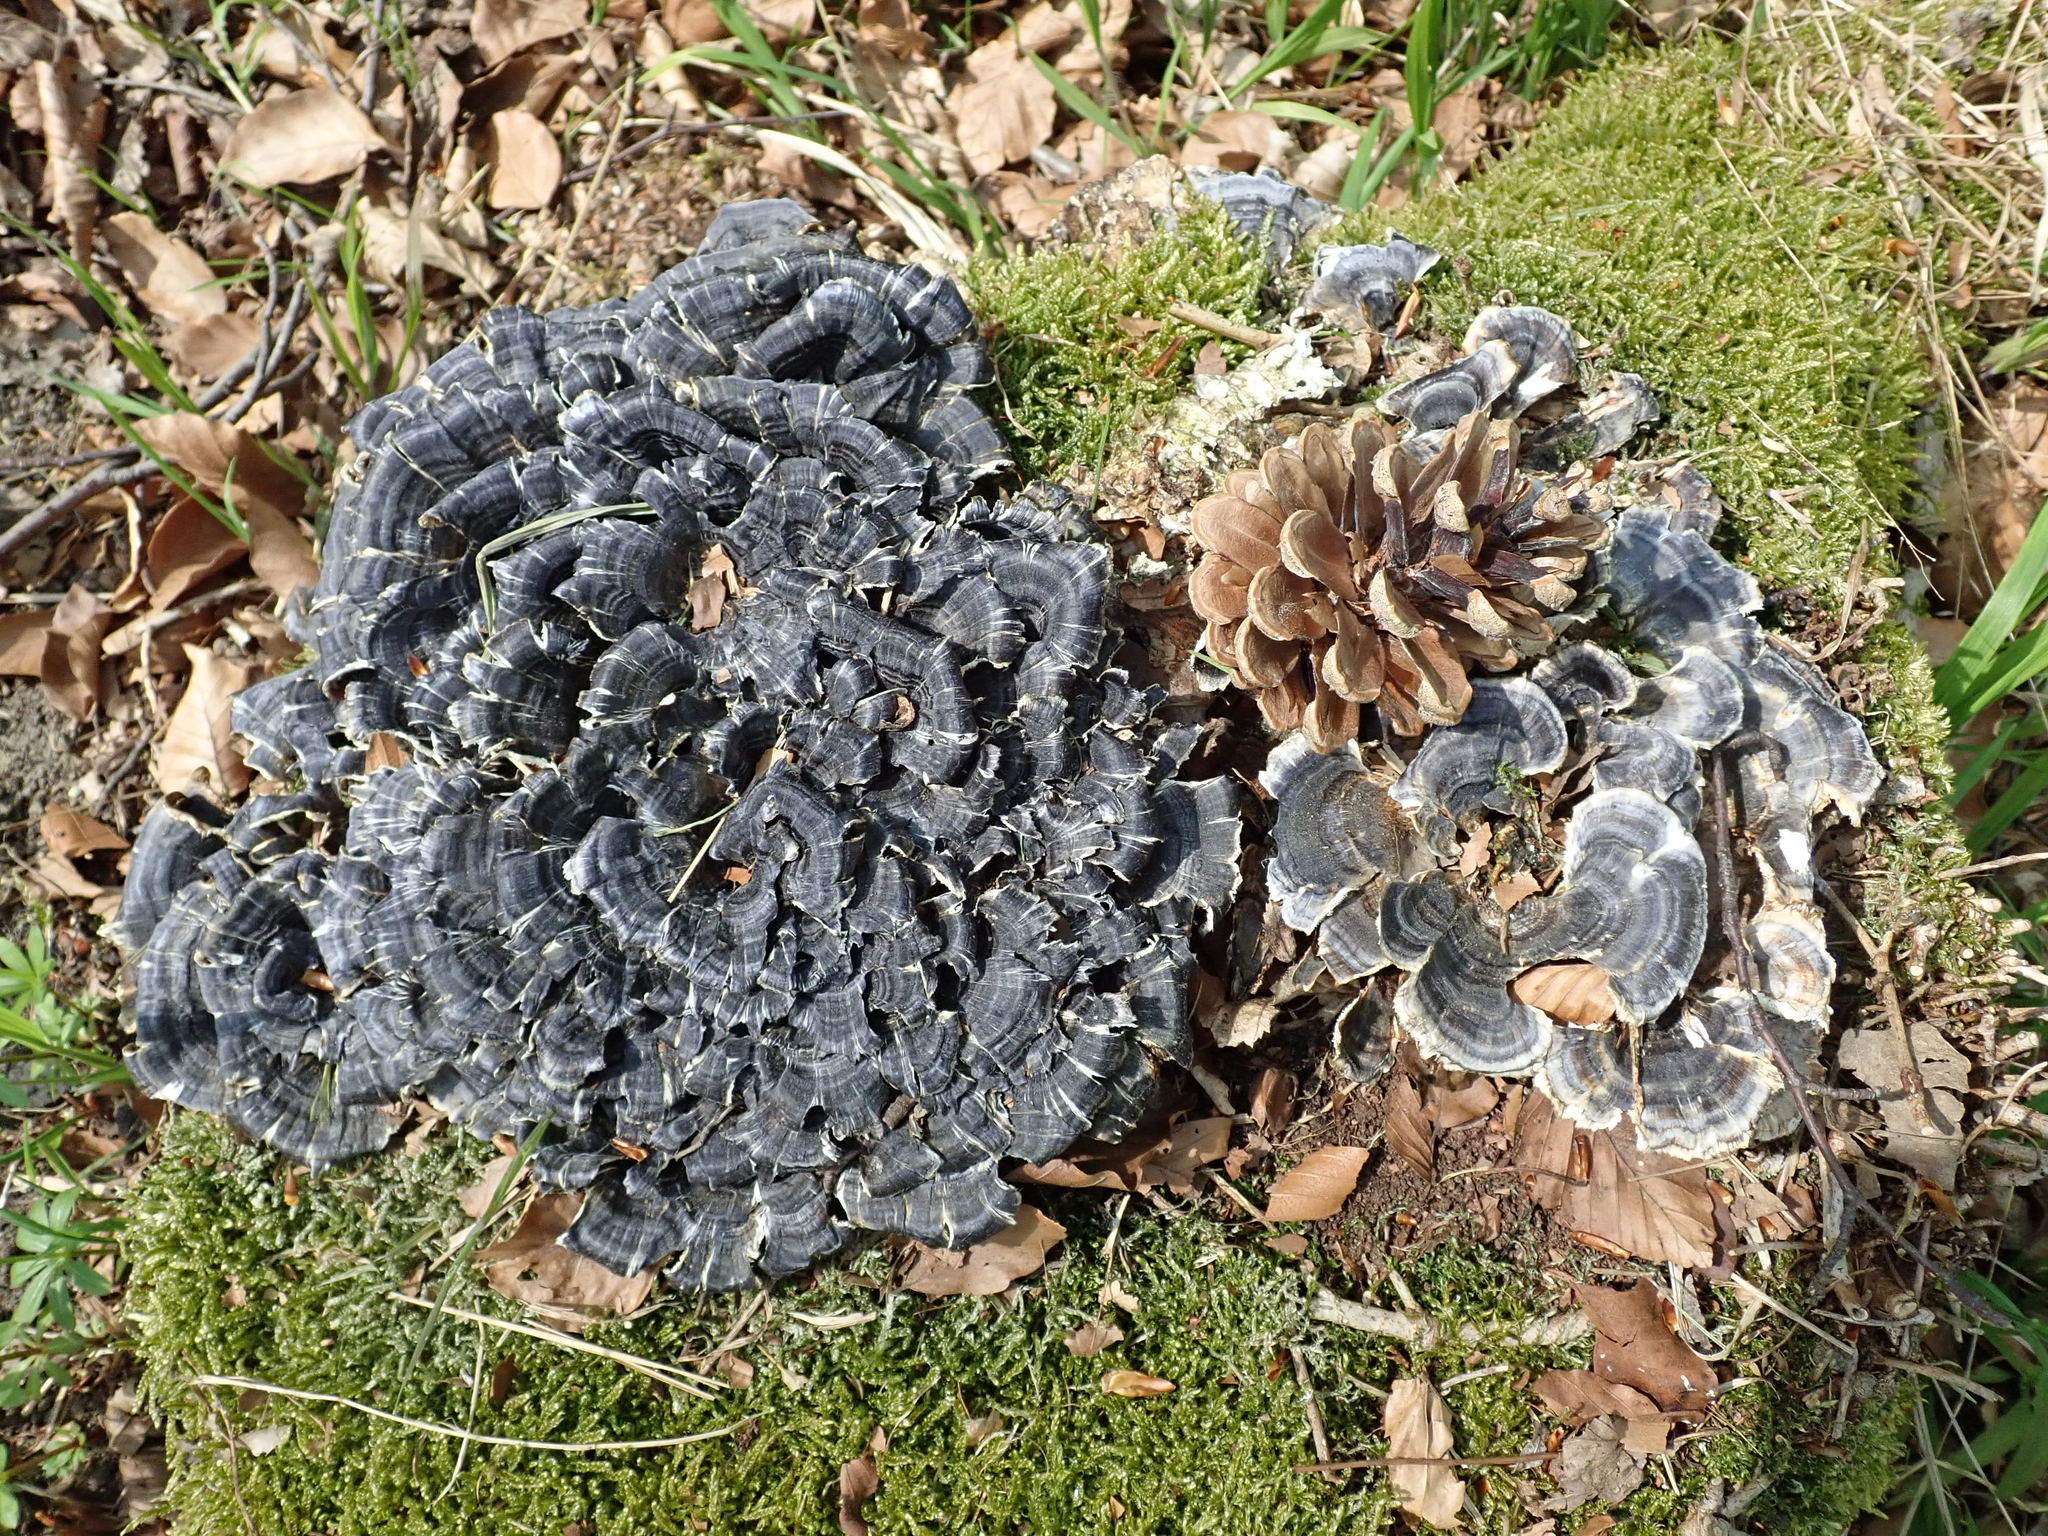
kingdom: Fungi
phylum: Basidiomycota
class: Agaricomycetes
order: Polyporales
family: Polyporaceae
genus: Trametes
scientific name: Trametes versicolor
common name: Turkeytail
